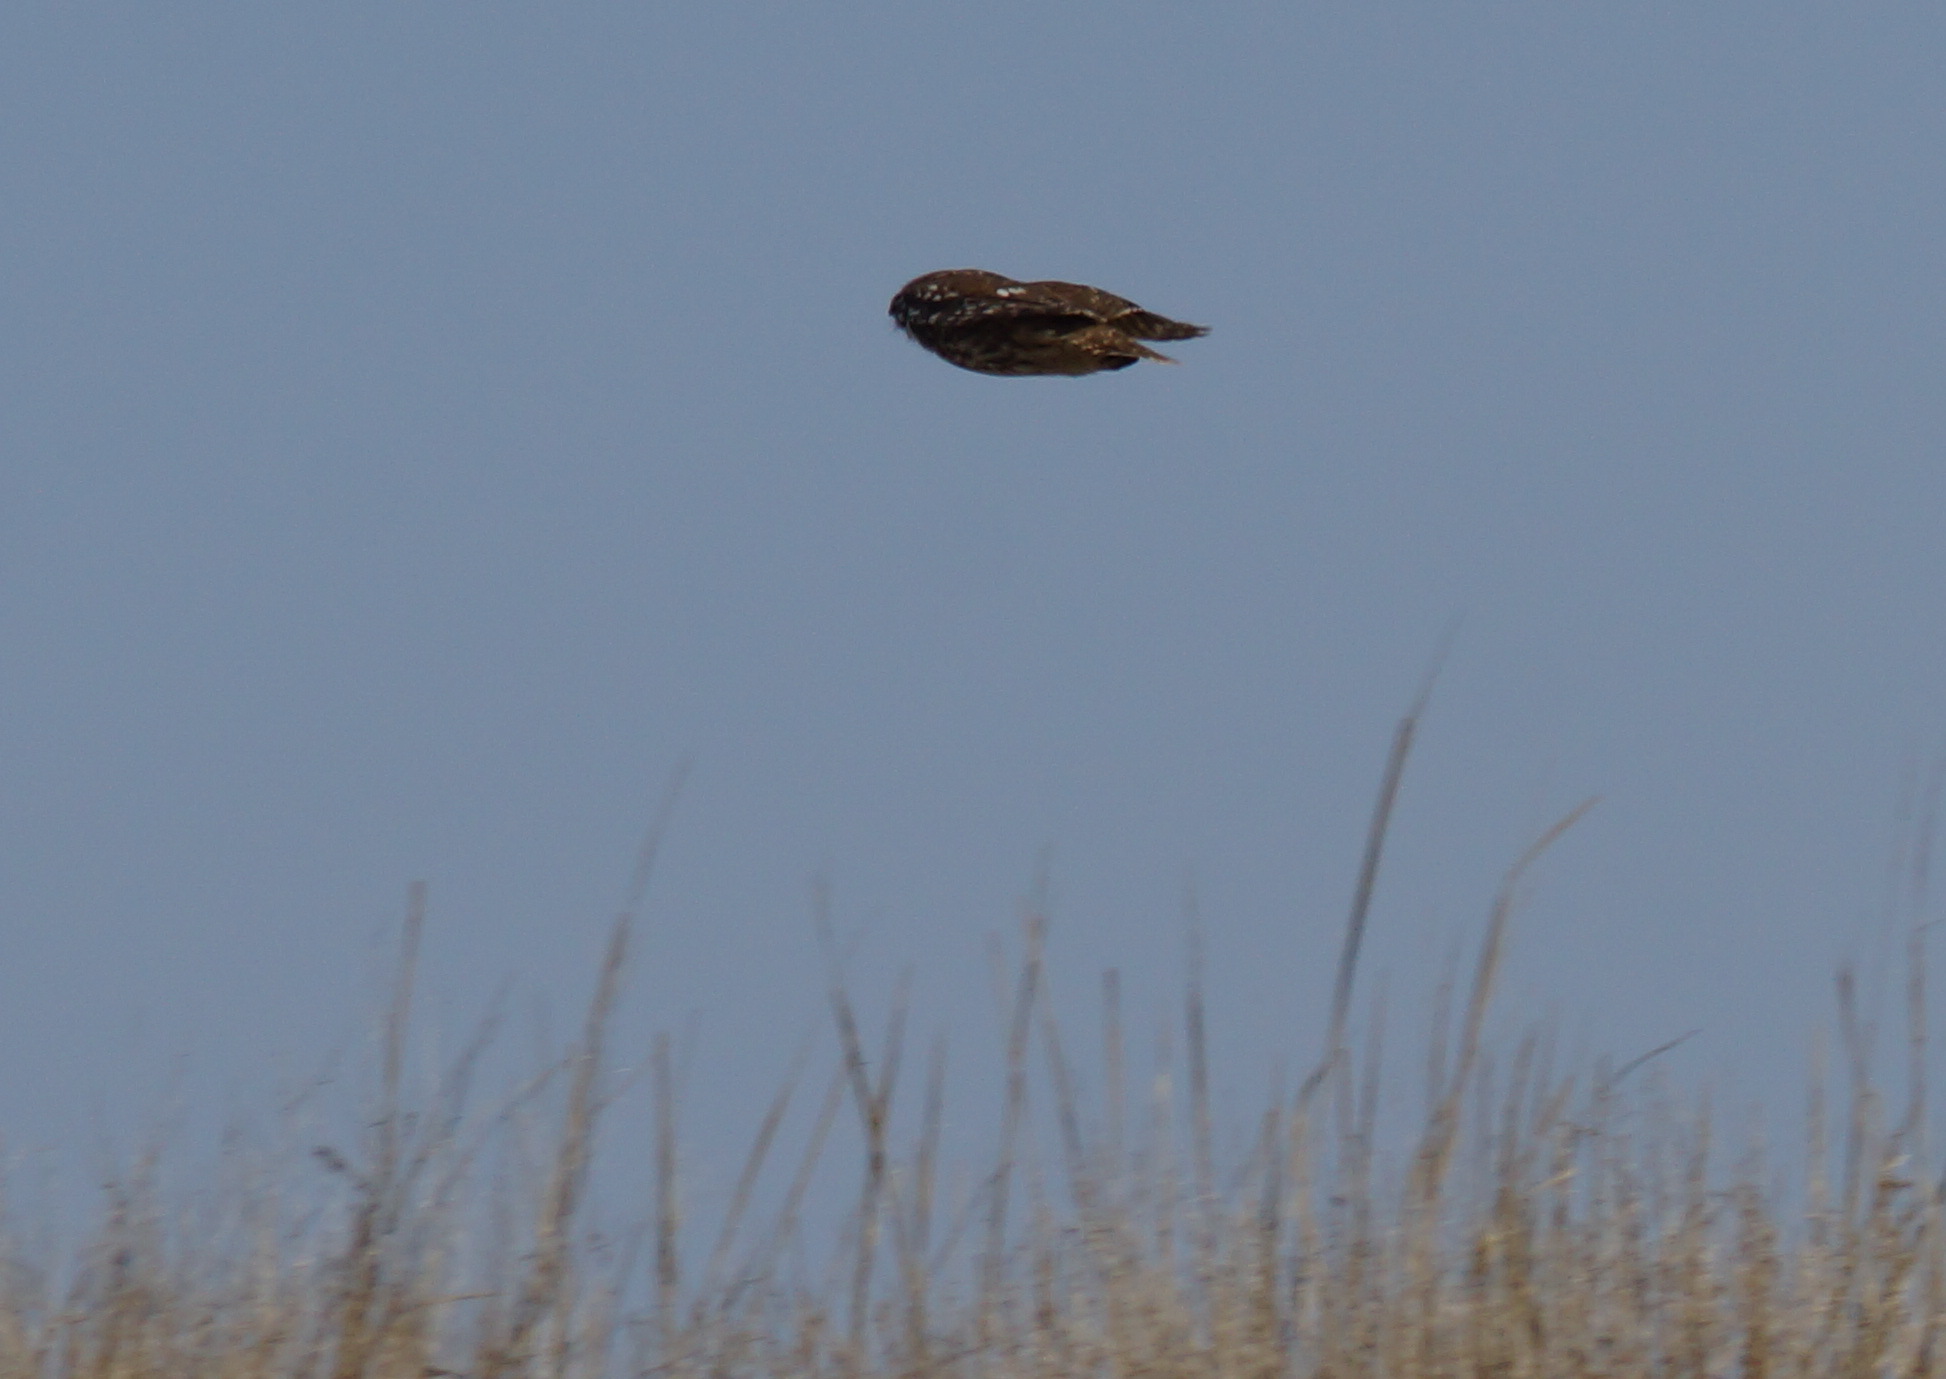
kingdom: Animalia
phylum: Chordata
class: Aves
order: Strigiformes
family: Strigidae
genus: Athene
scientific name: Athene noctua
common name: Little owl
